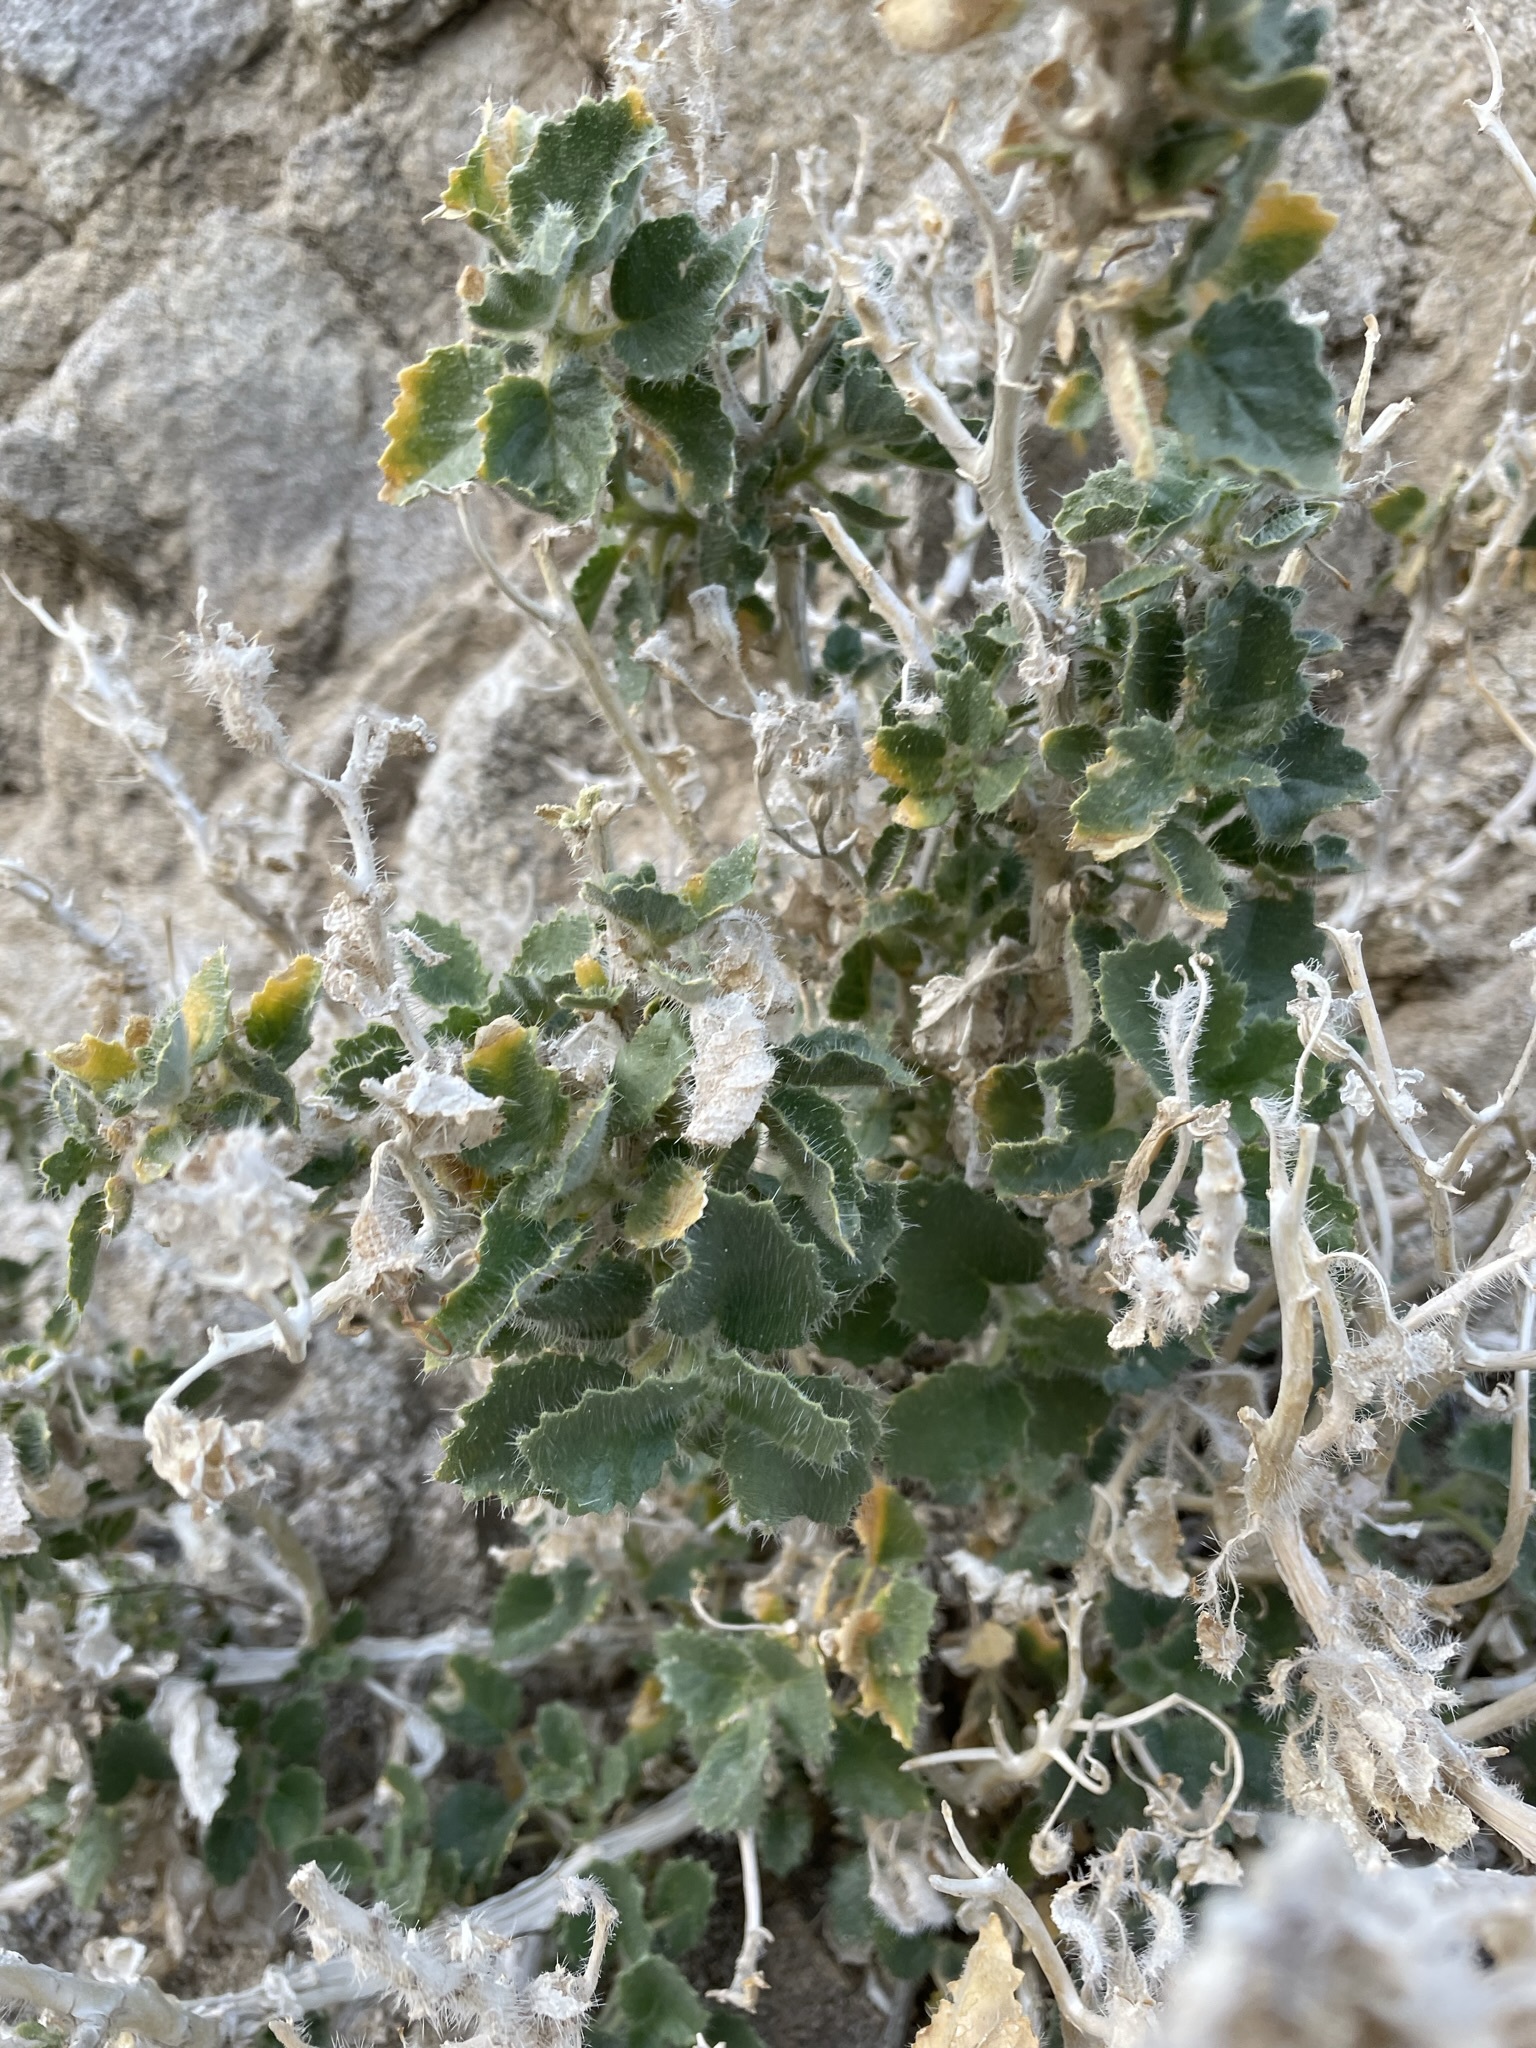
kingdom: Plantae
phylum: Tracheophyta
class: Magnoliopsida
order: Cornales
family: Loasaceae
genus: Eucnide
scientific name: Eucnide urens
